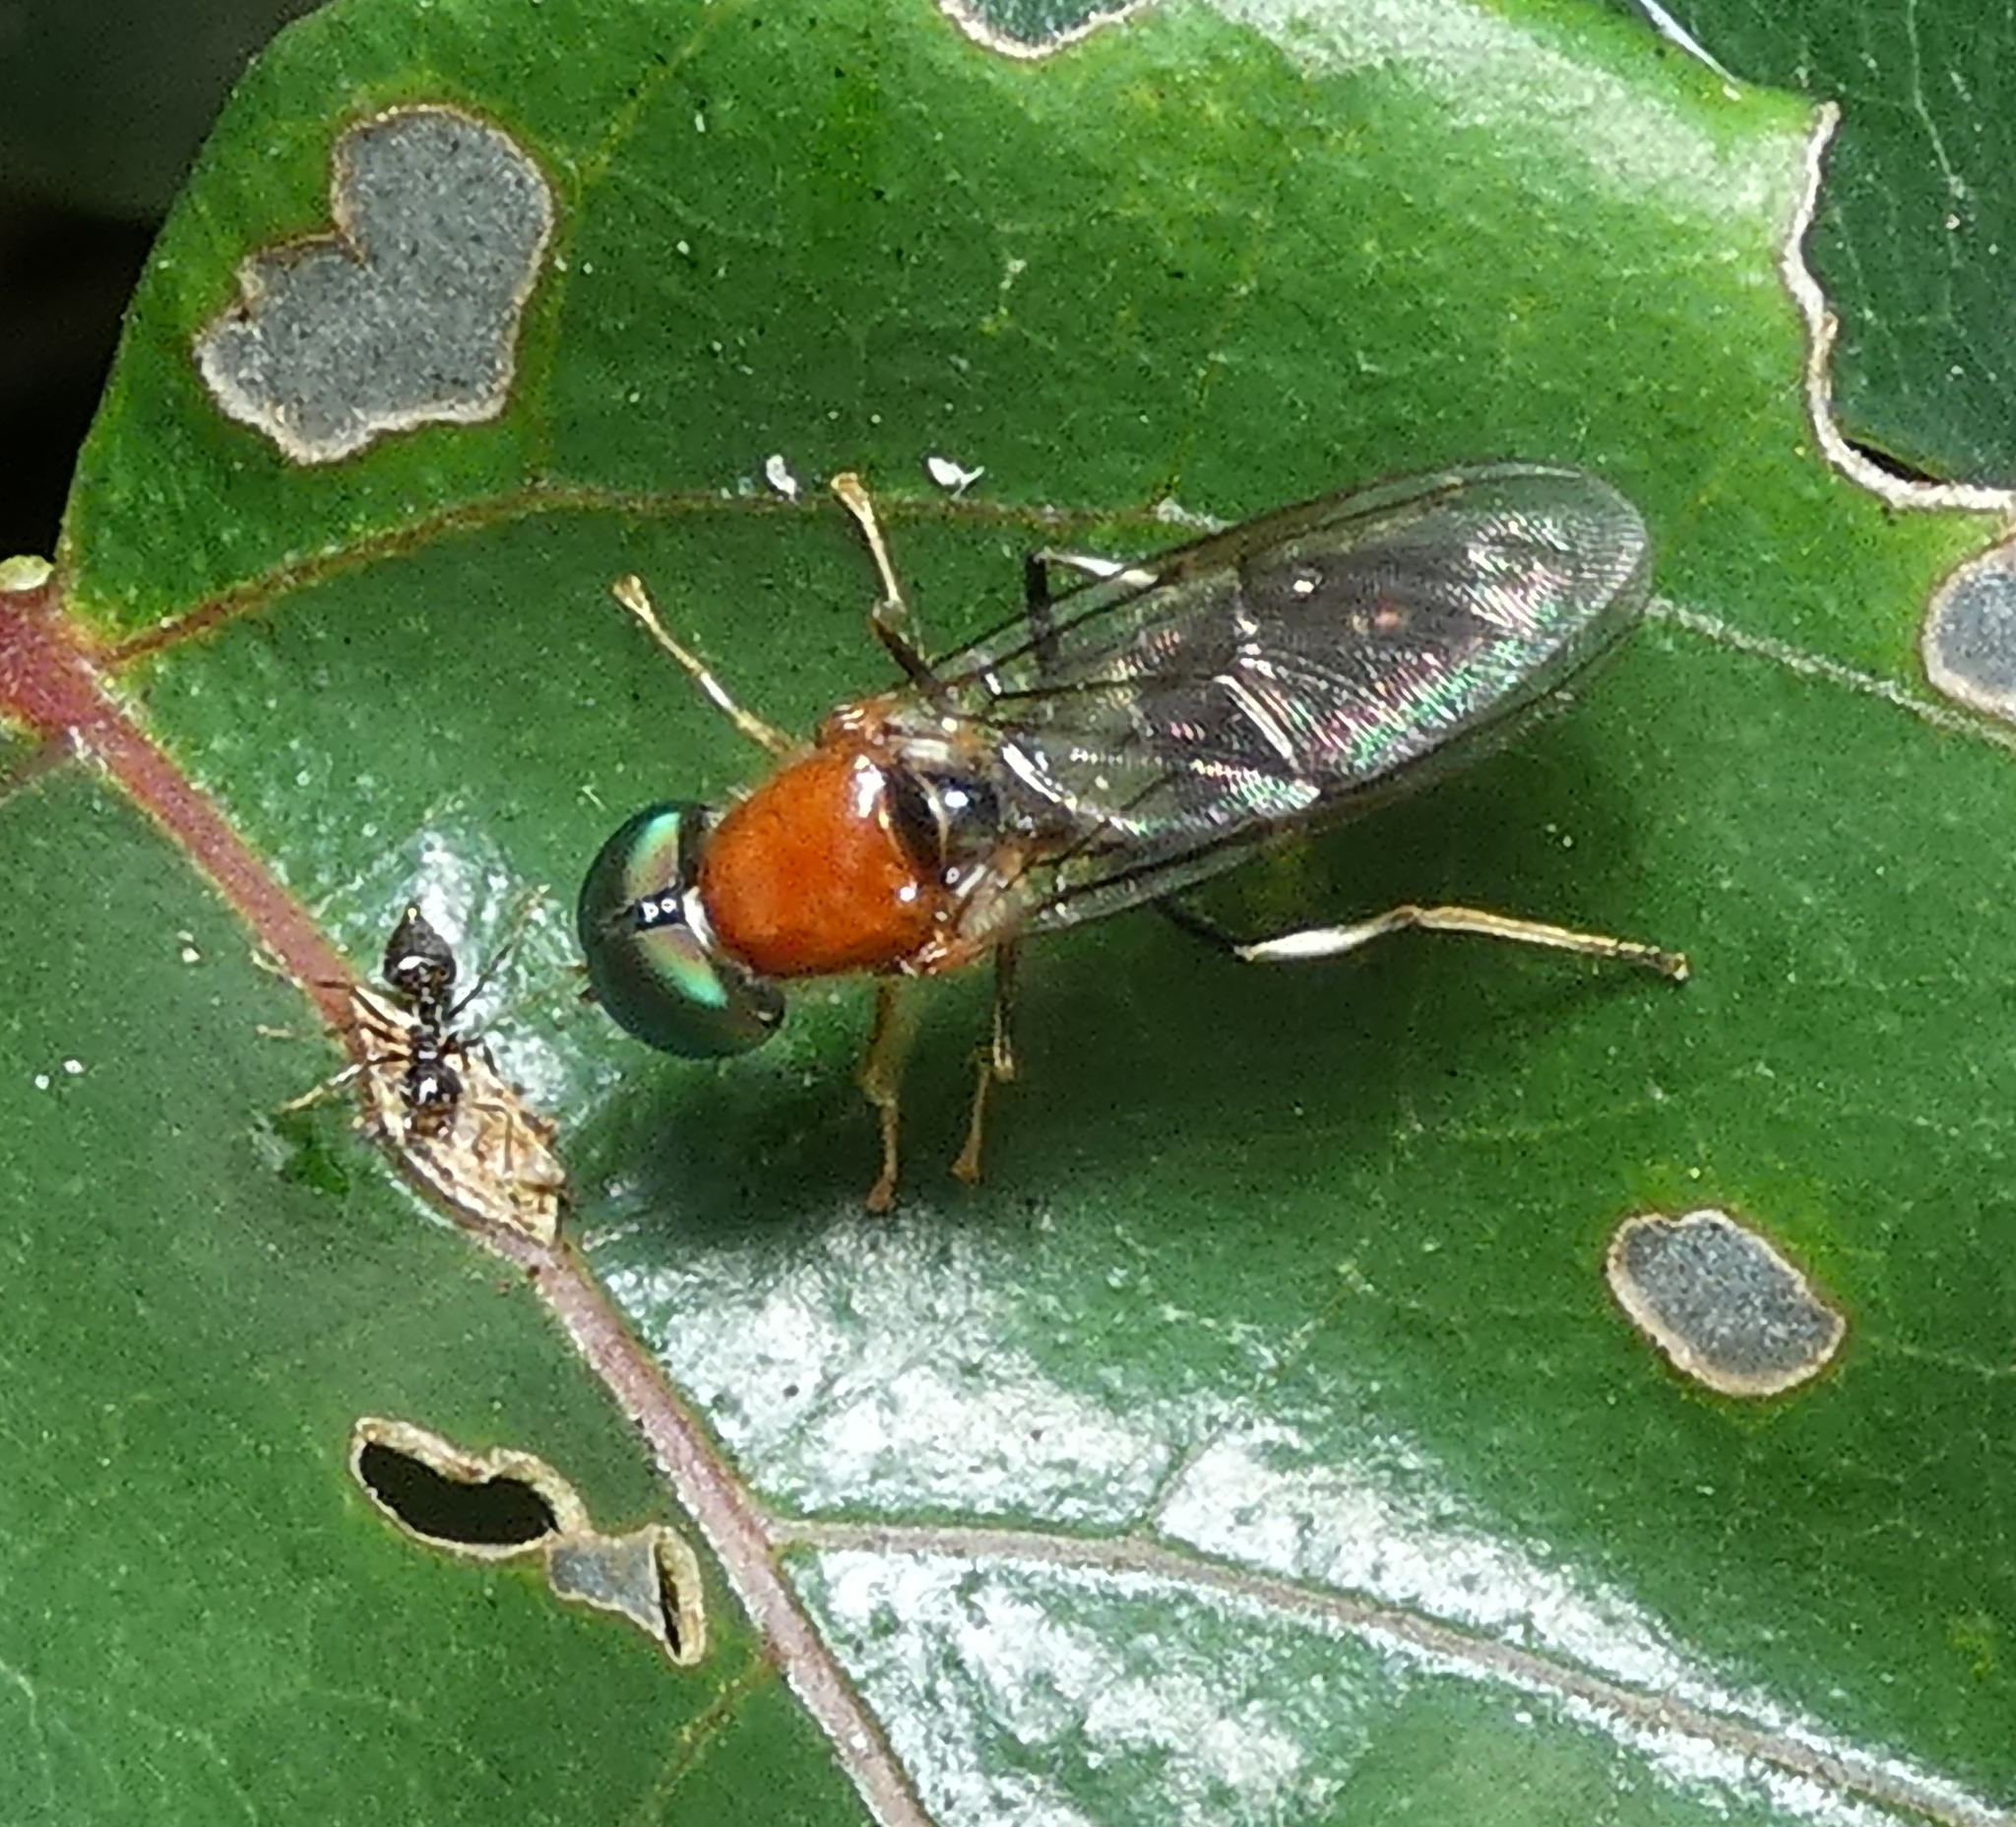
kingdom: Animalia
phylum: Arthropoda
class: Insecta
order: Diptera
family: Stratiomyidae
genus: Sargus
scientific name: Sargus thoracicus
